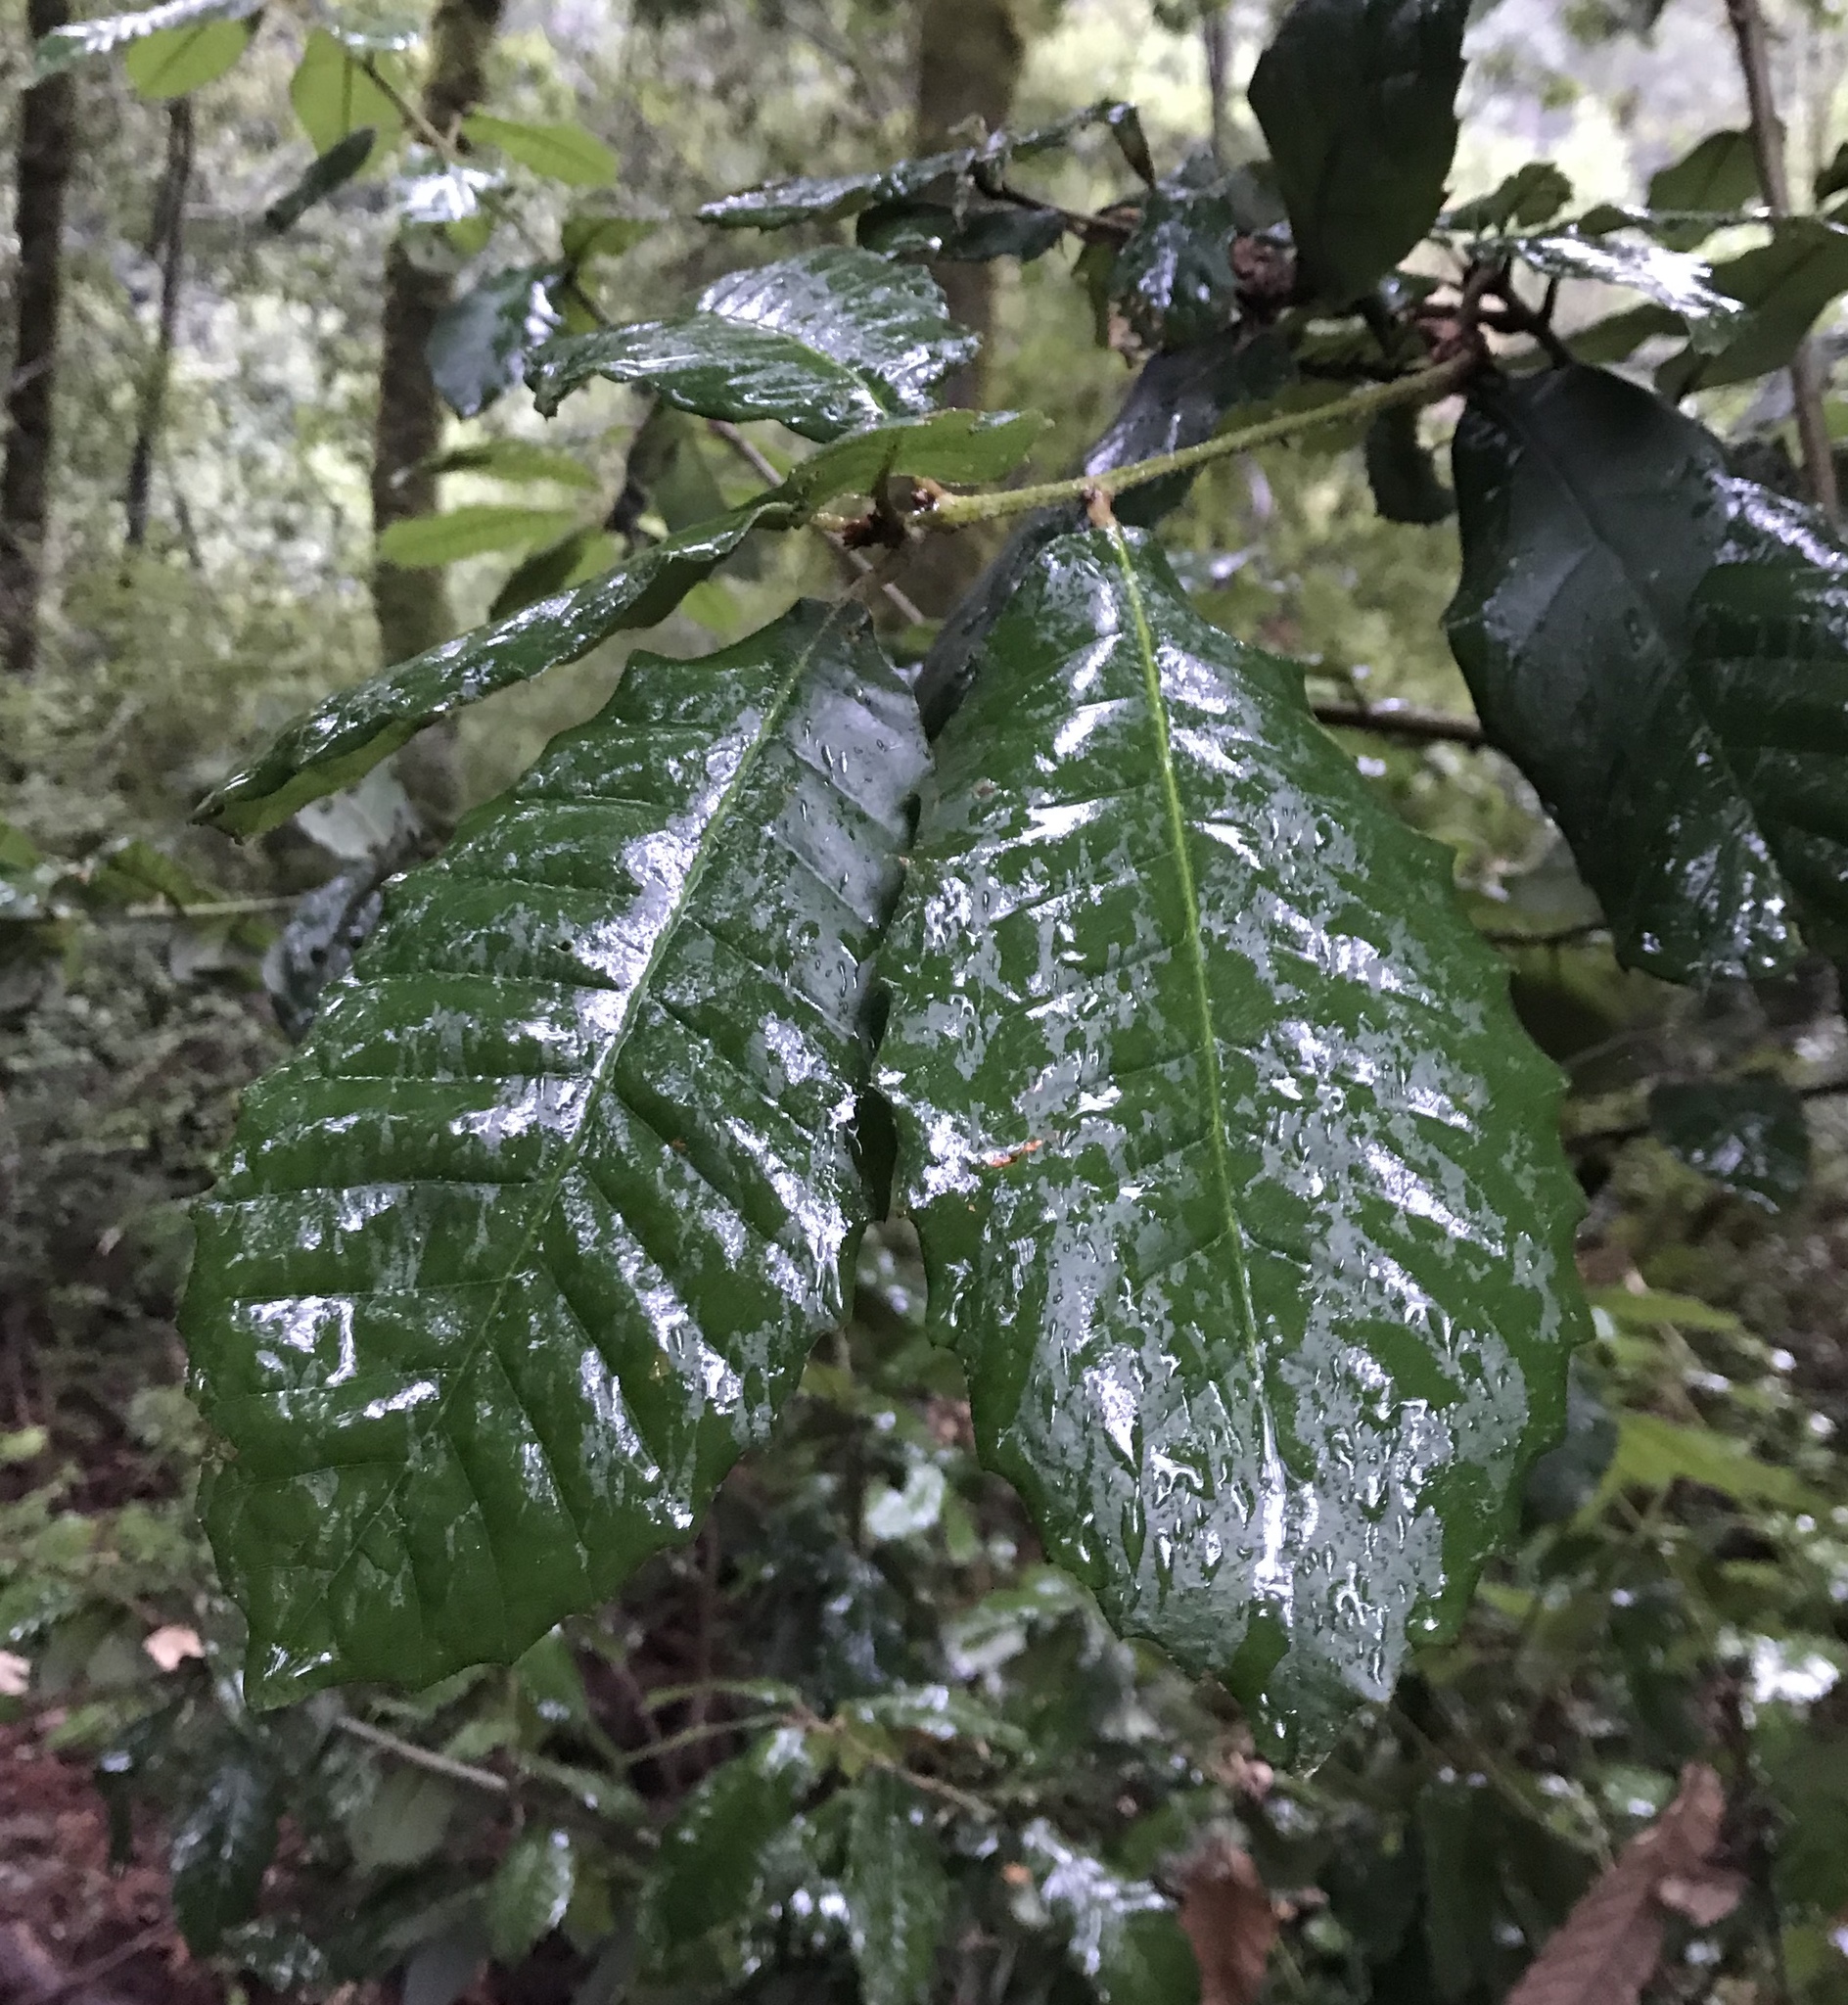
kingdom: Plantae
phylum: Tracheophyta
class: Magnoliopsida
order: Fagales
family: Fagaceae
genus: Notholithocarpus
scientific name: Notholithocarpus densiflorus
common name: Tan bark oak
